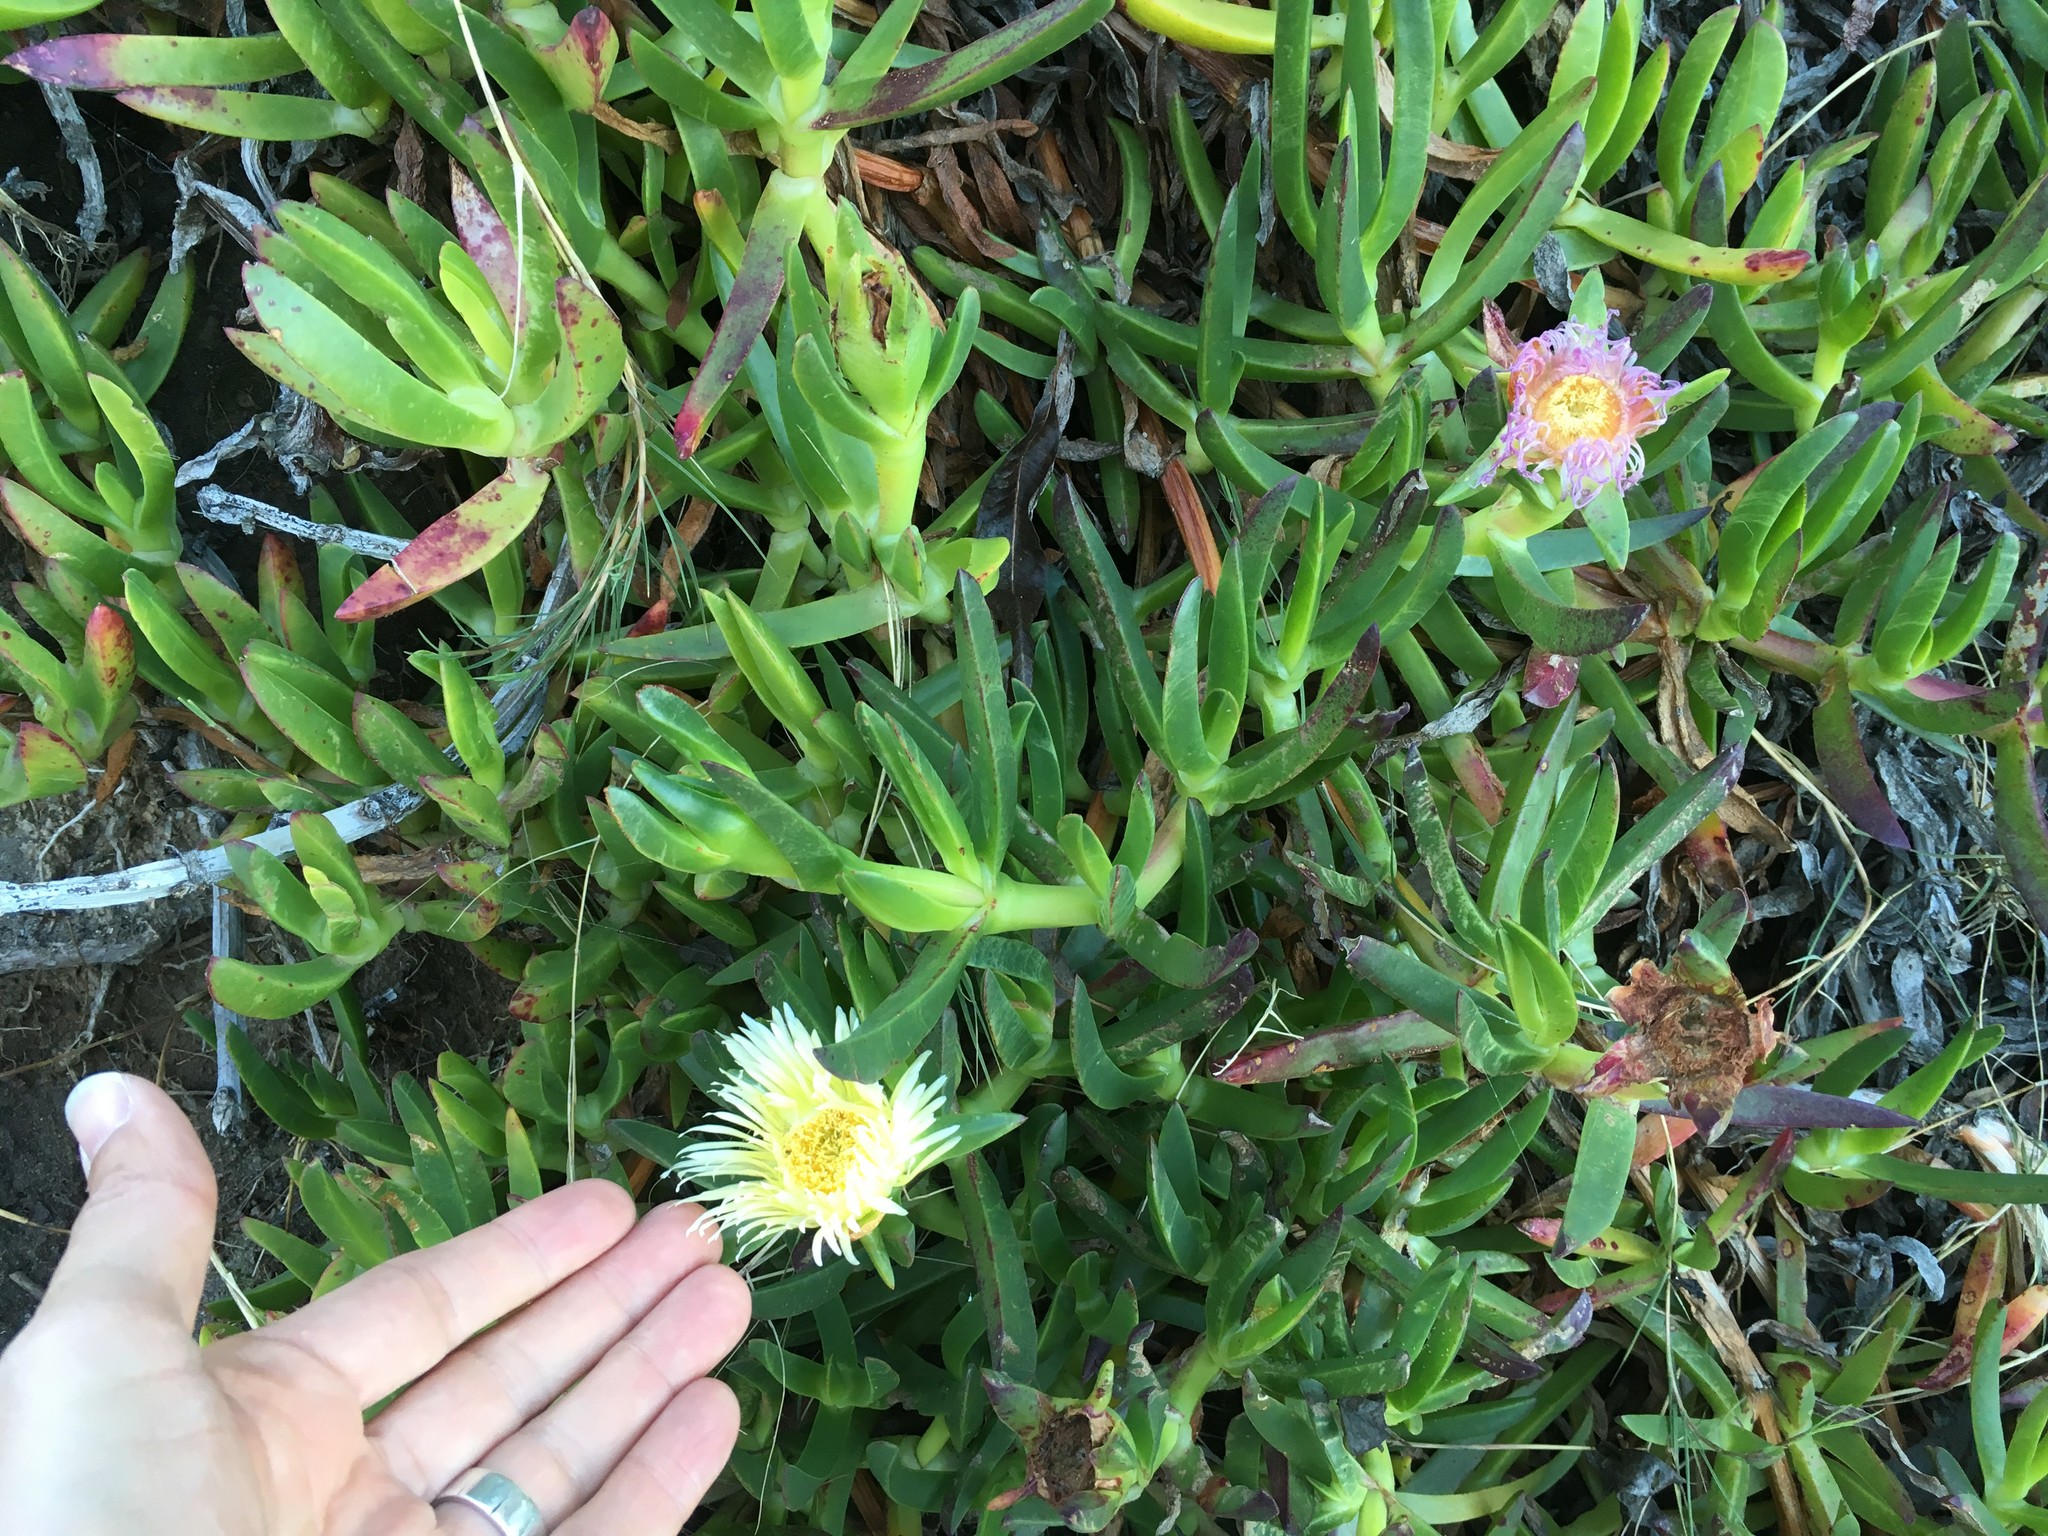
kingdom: Plantae
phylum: Tracheophyta
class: Magnoliopsida
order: Caryophyllales
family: Aizoaceae
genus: Carpobrotus
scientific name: Carpobrotus edulis
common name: Hottentot-fig
